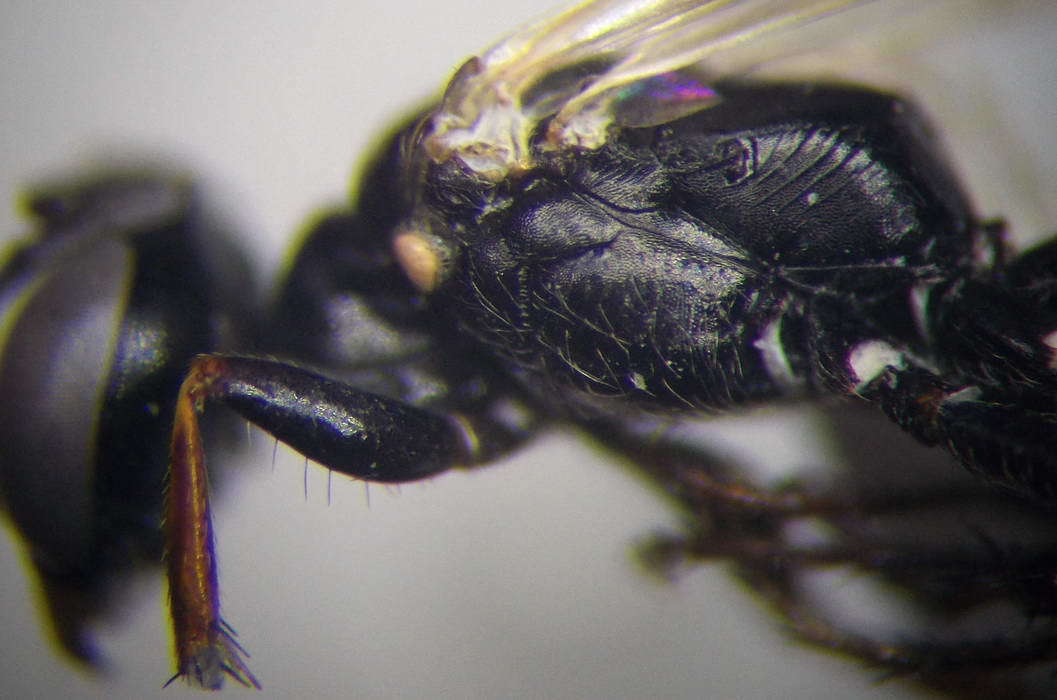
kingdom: Animalia
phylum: Arthropoda
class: Insecta
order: Hymenoptera
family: Crabronidae
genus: Dryudella
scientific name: Dryudella lineata
